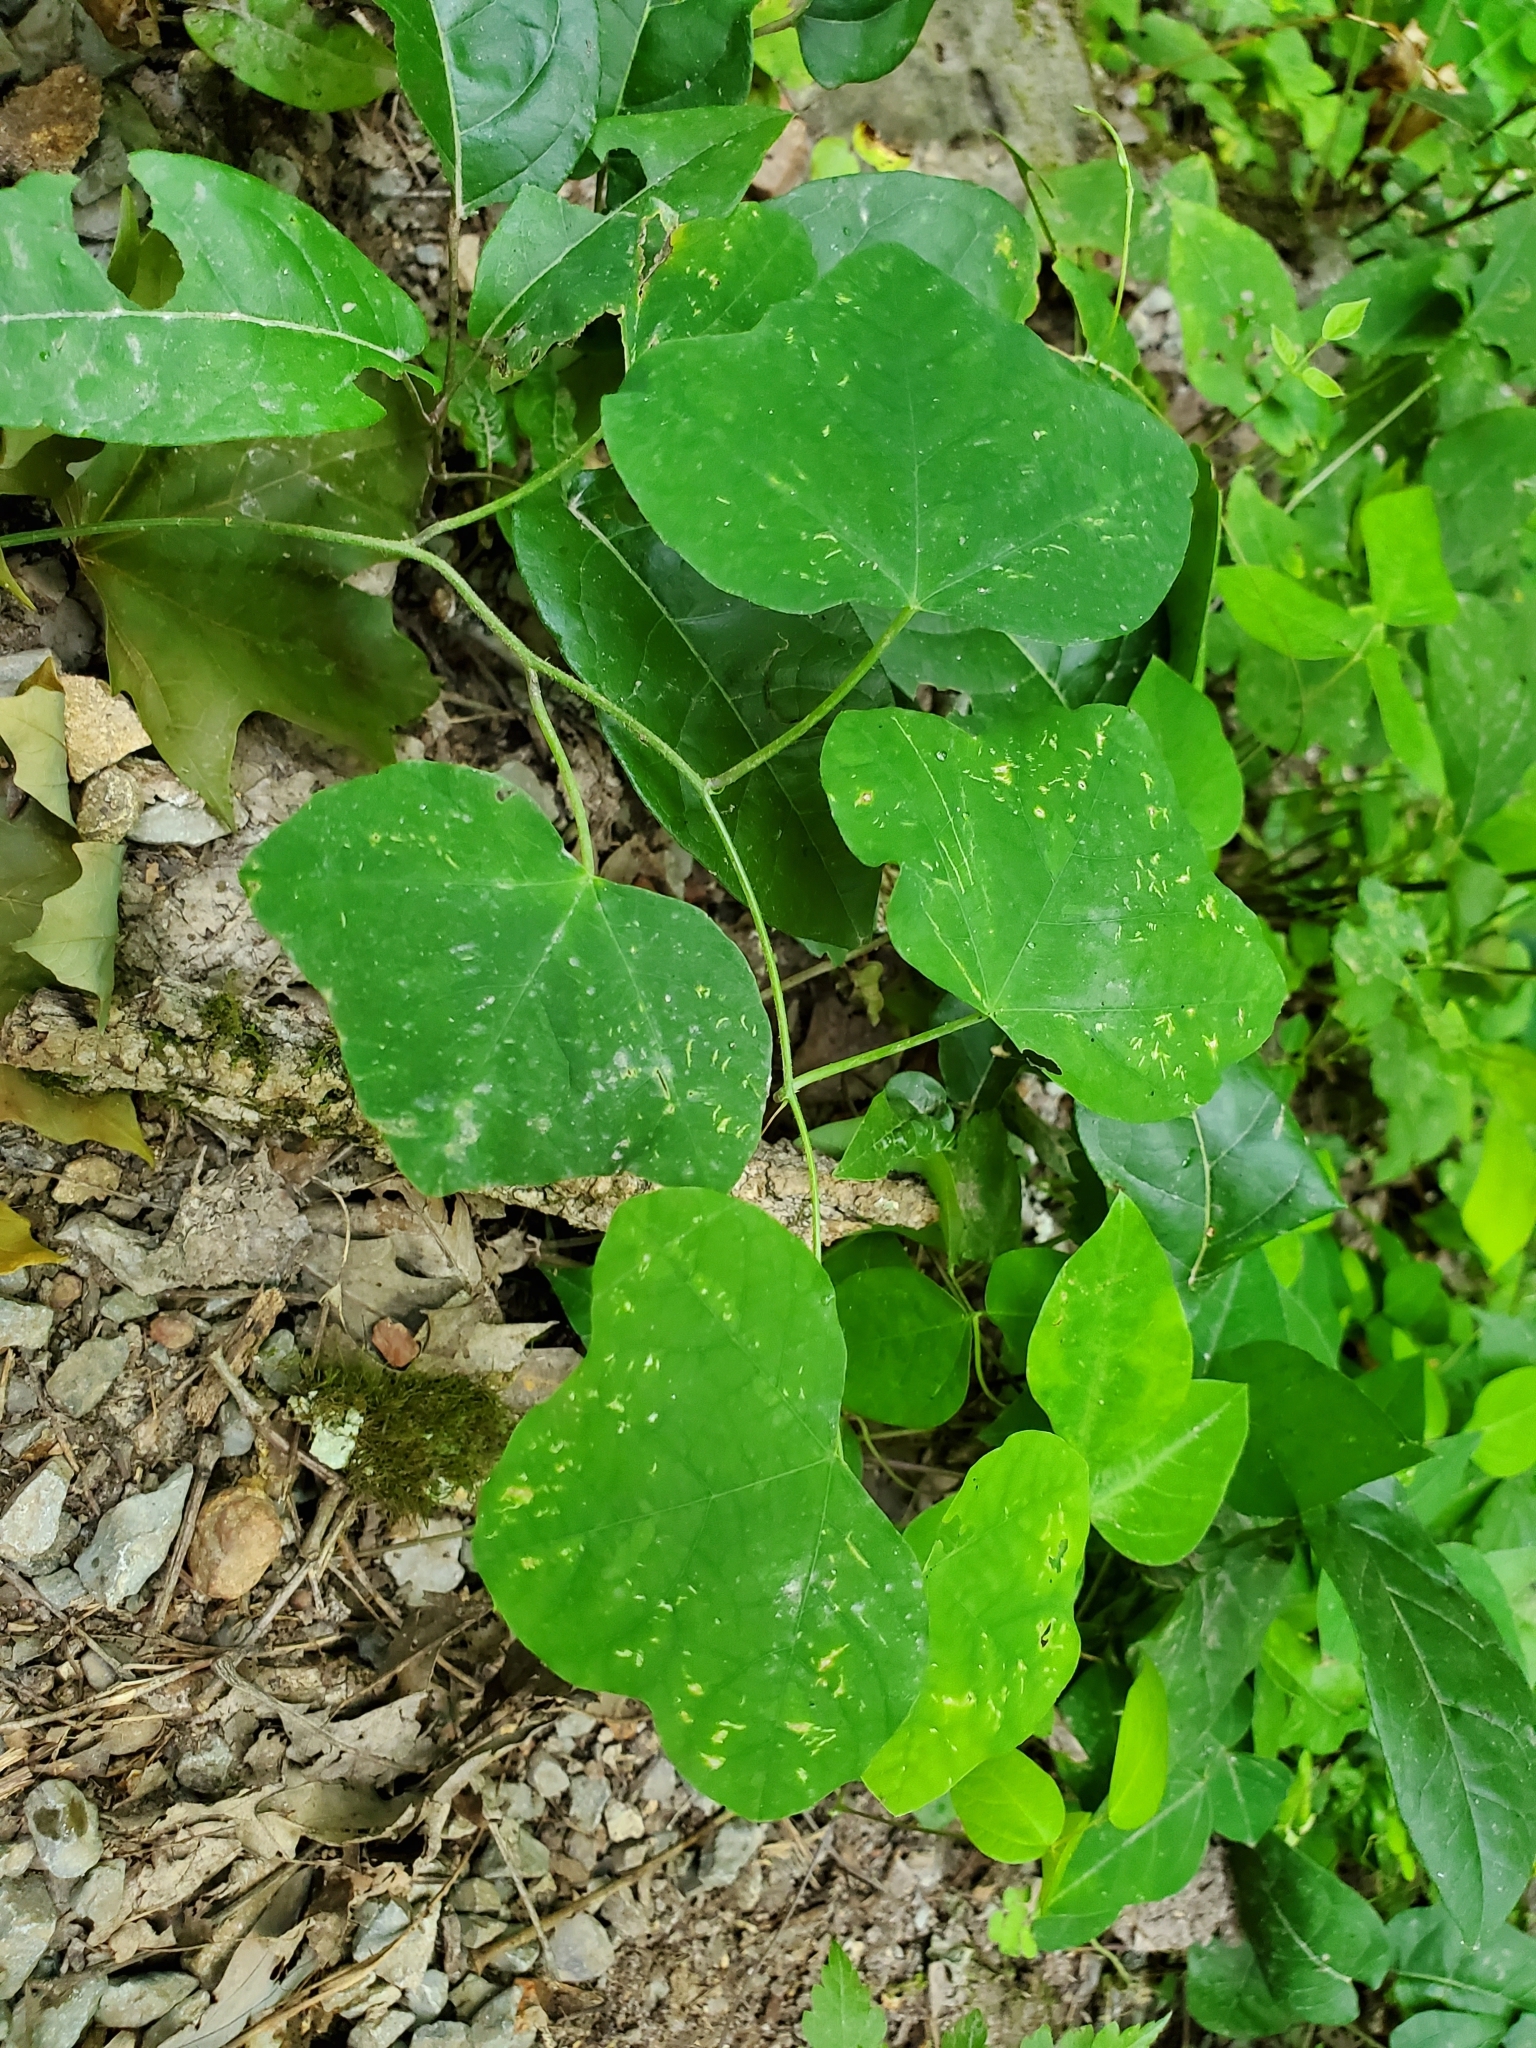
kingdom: Plantae
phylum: Tracheophyta
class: Magnoliopsida
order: Malpighiales
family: Passifloraceae
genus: Passiflora
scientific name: Passiflora lutea
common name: Yellow passionflower
